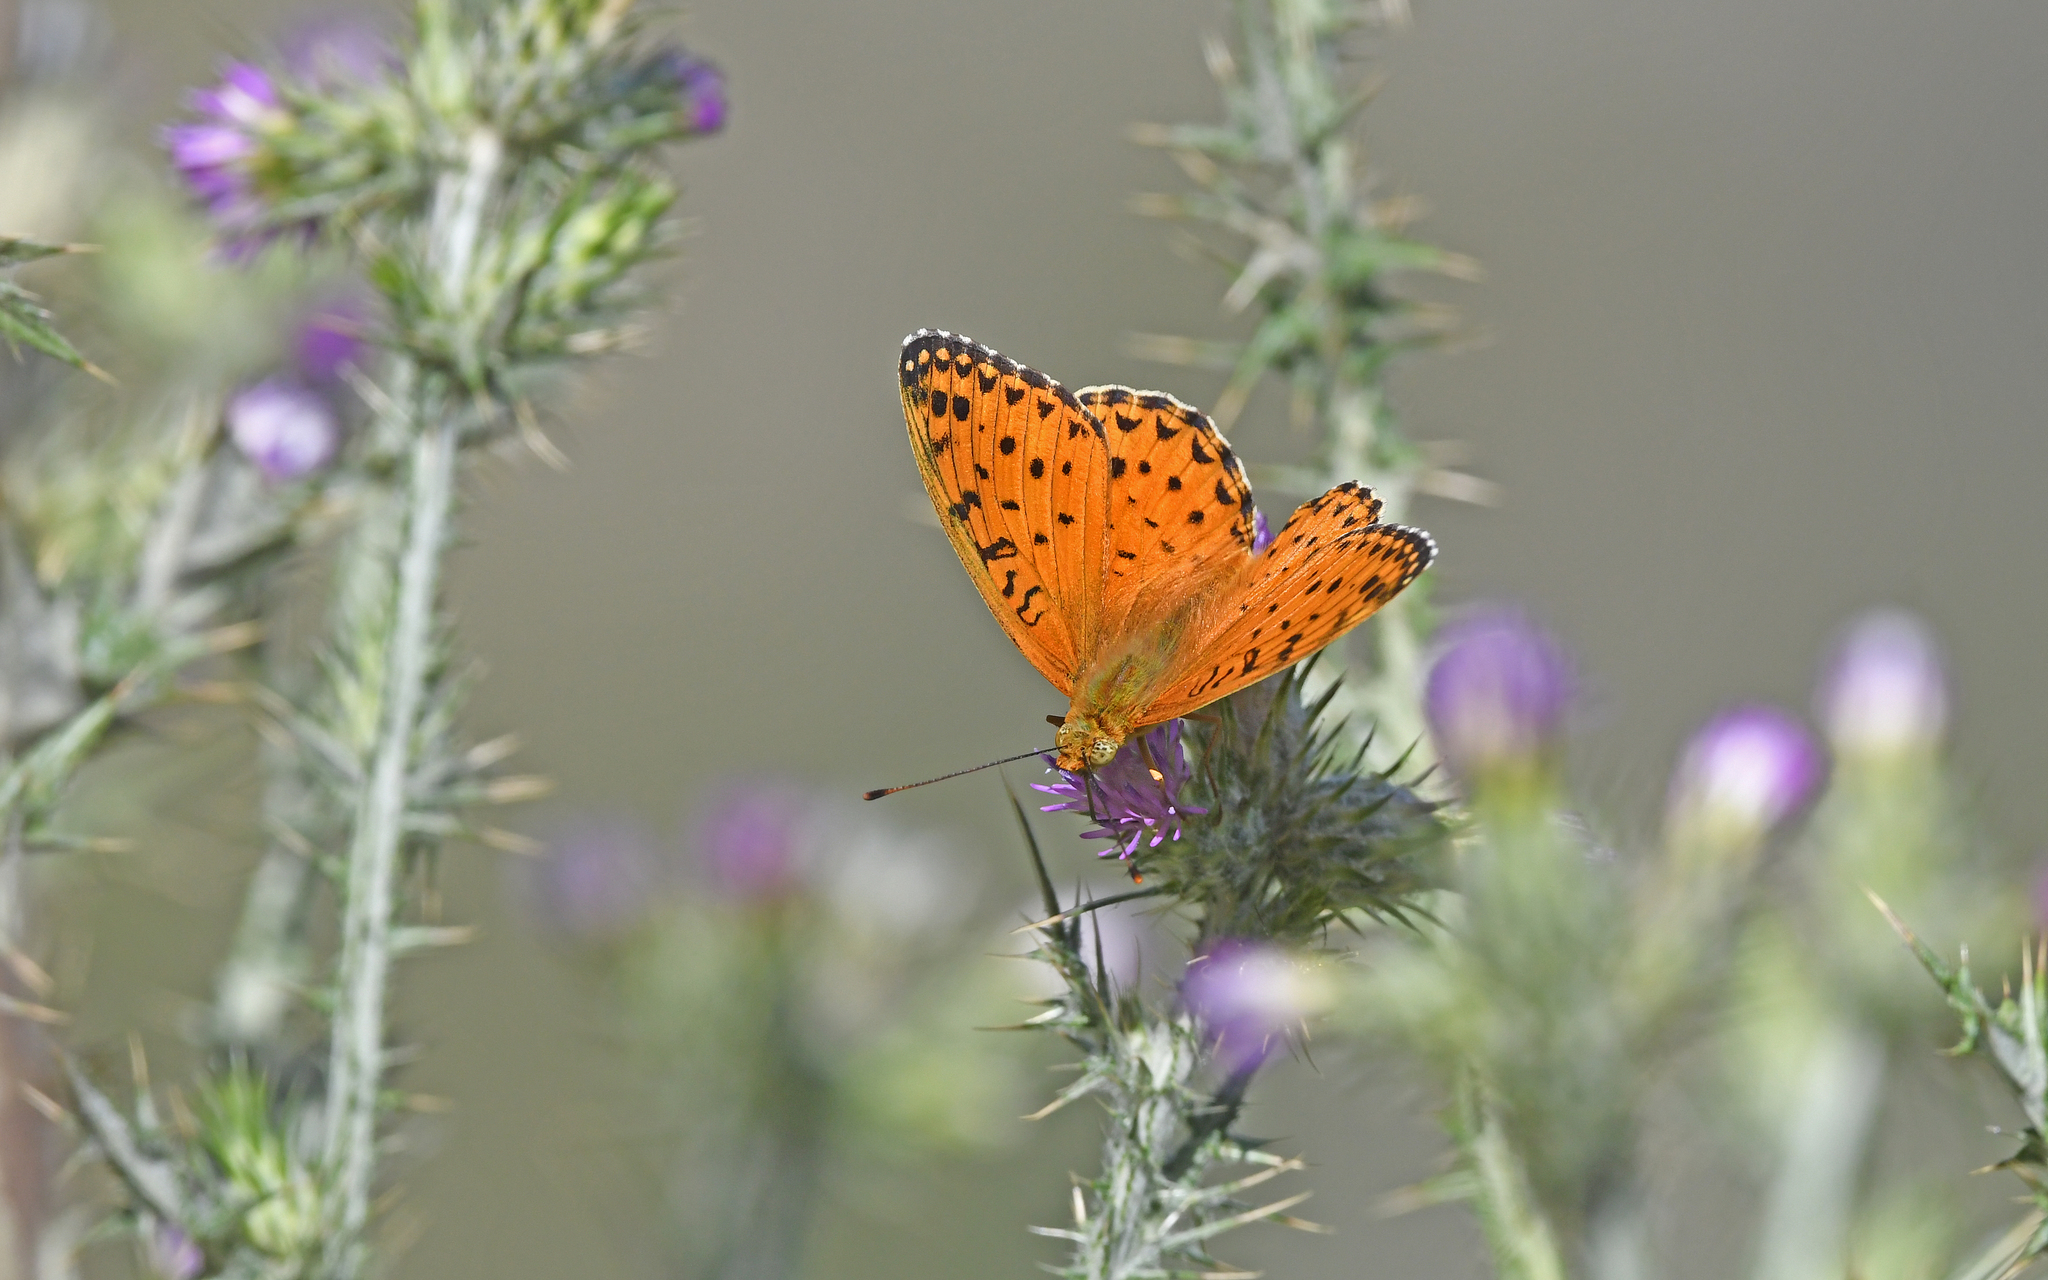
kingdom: Animalia
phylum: Arthropoda
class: Insecta
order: Lepidoptera
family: Nymphalidae
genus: Fabriciana
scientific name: Fabriciana niobe
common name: Niobe fritillary
